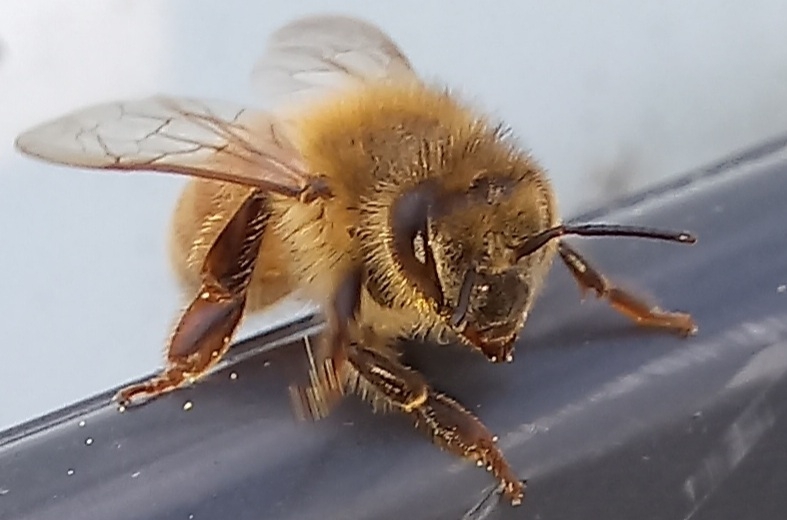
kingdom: Animalia
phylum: Arthropoda
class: Insecta
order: Hymenoptera
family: Apidae
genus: Apis
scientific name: Apis mellifera
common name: Honey bee
